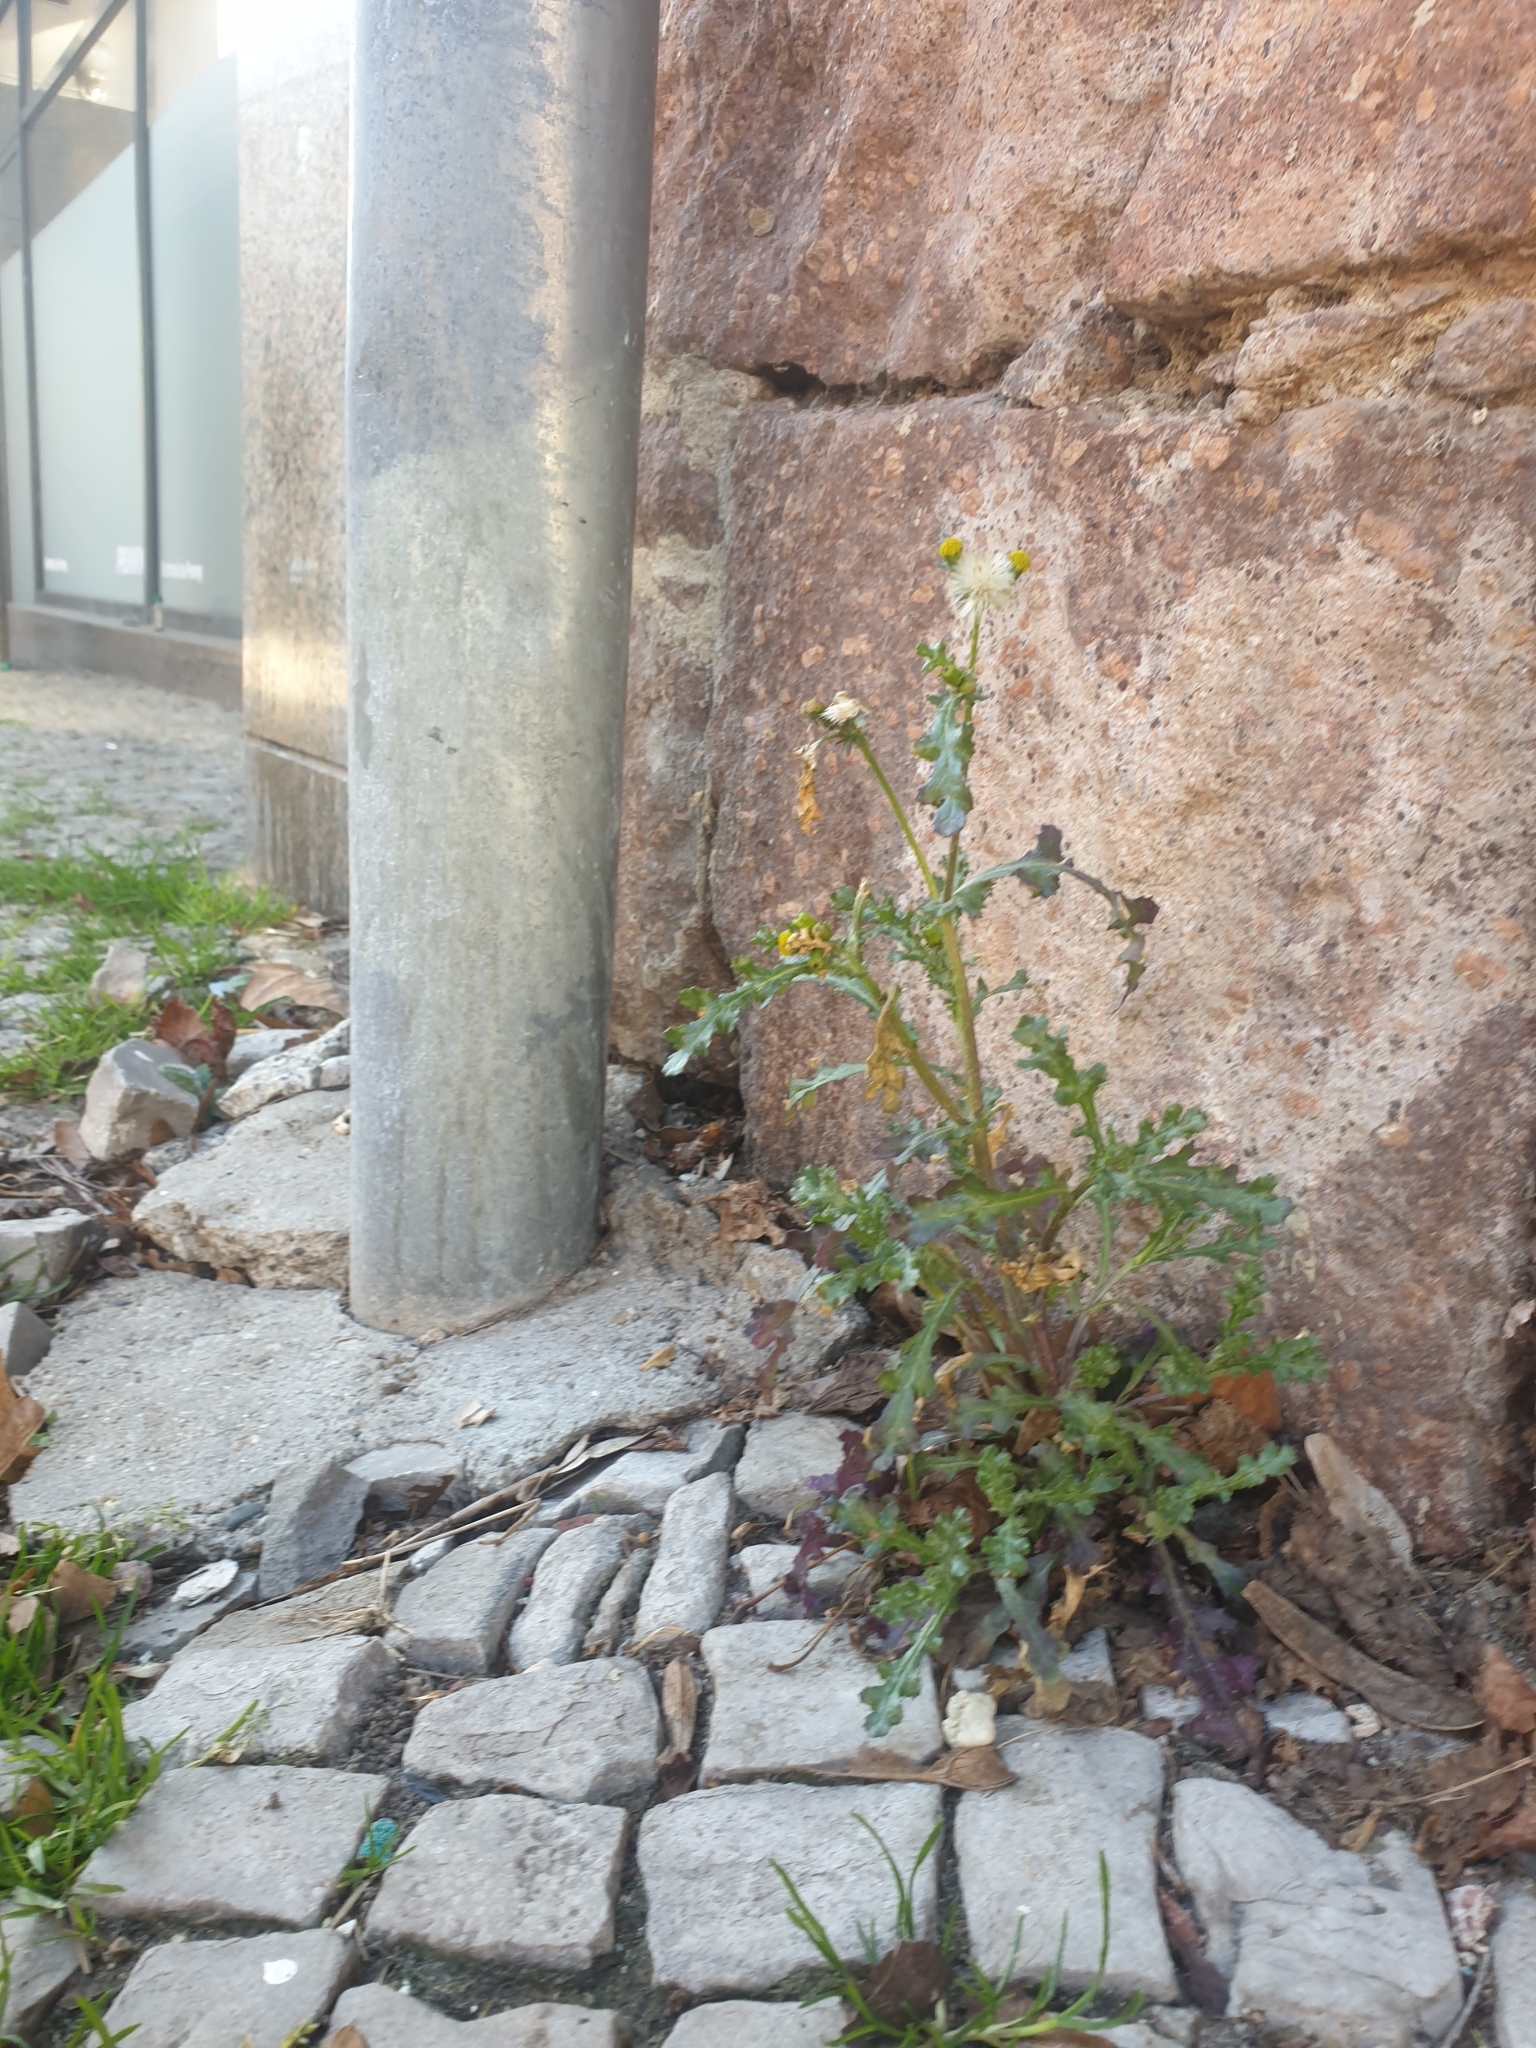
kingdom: Plantae
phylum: Tracheophyta
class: Magnoliopsida
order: Asterales
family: Asteraceae
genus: Senecio
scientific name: Senecio vulgaris
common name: Old-man-in-the-spring
